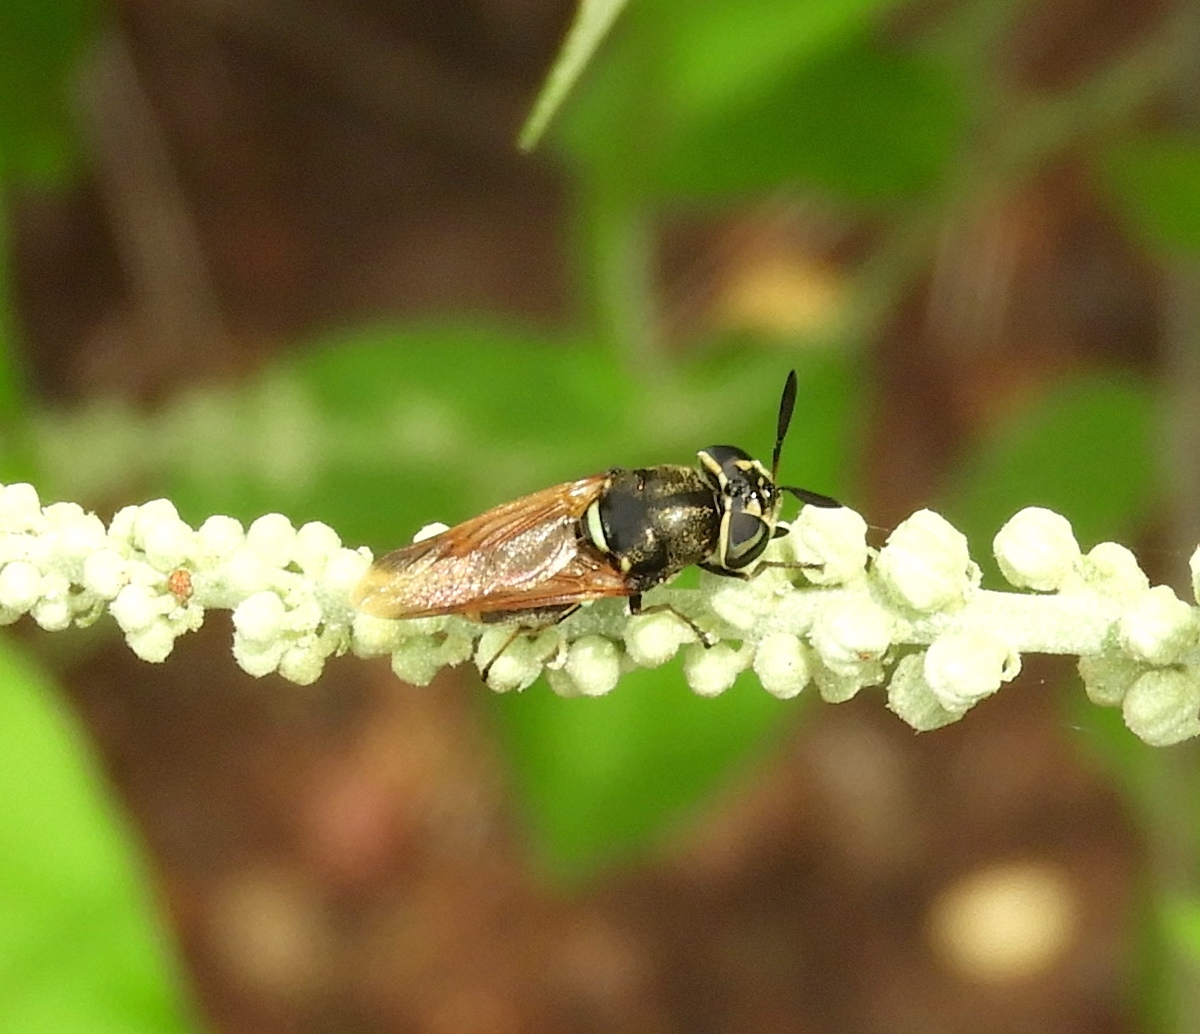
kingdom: Animalia
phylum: Arthropoda
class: Insecta
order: Diptera
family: Stratiomyidae
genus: Hoplitimyia
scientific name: Hoplitimyia
